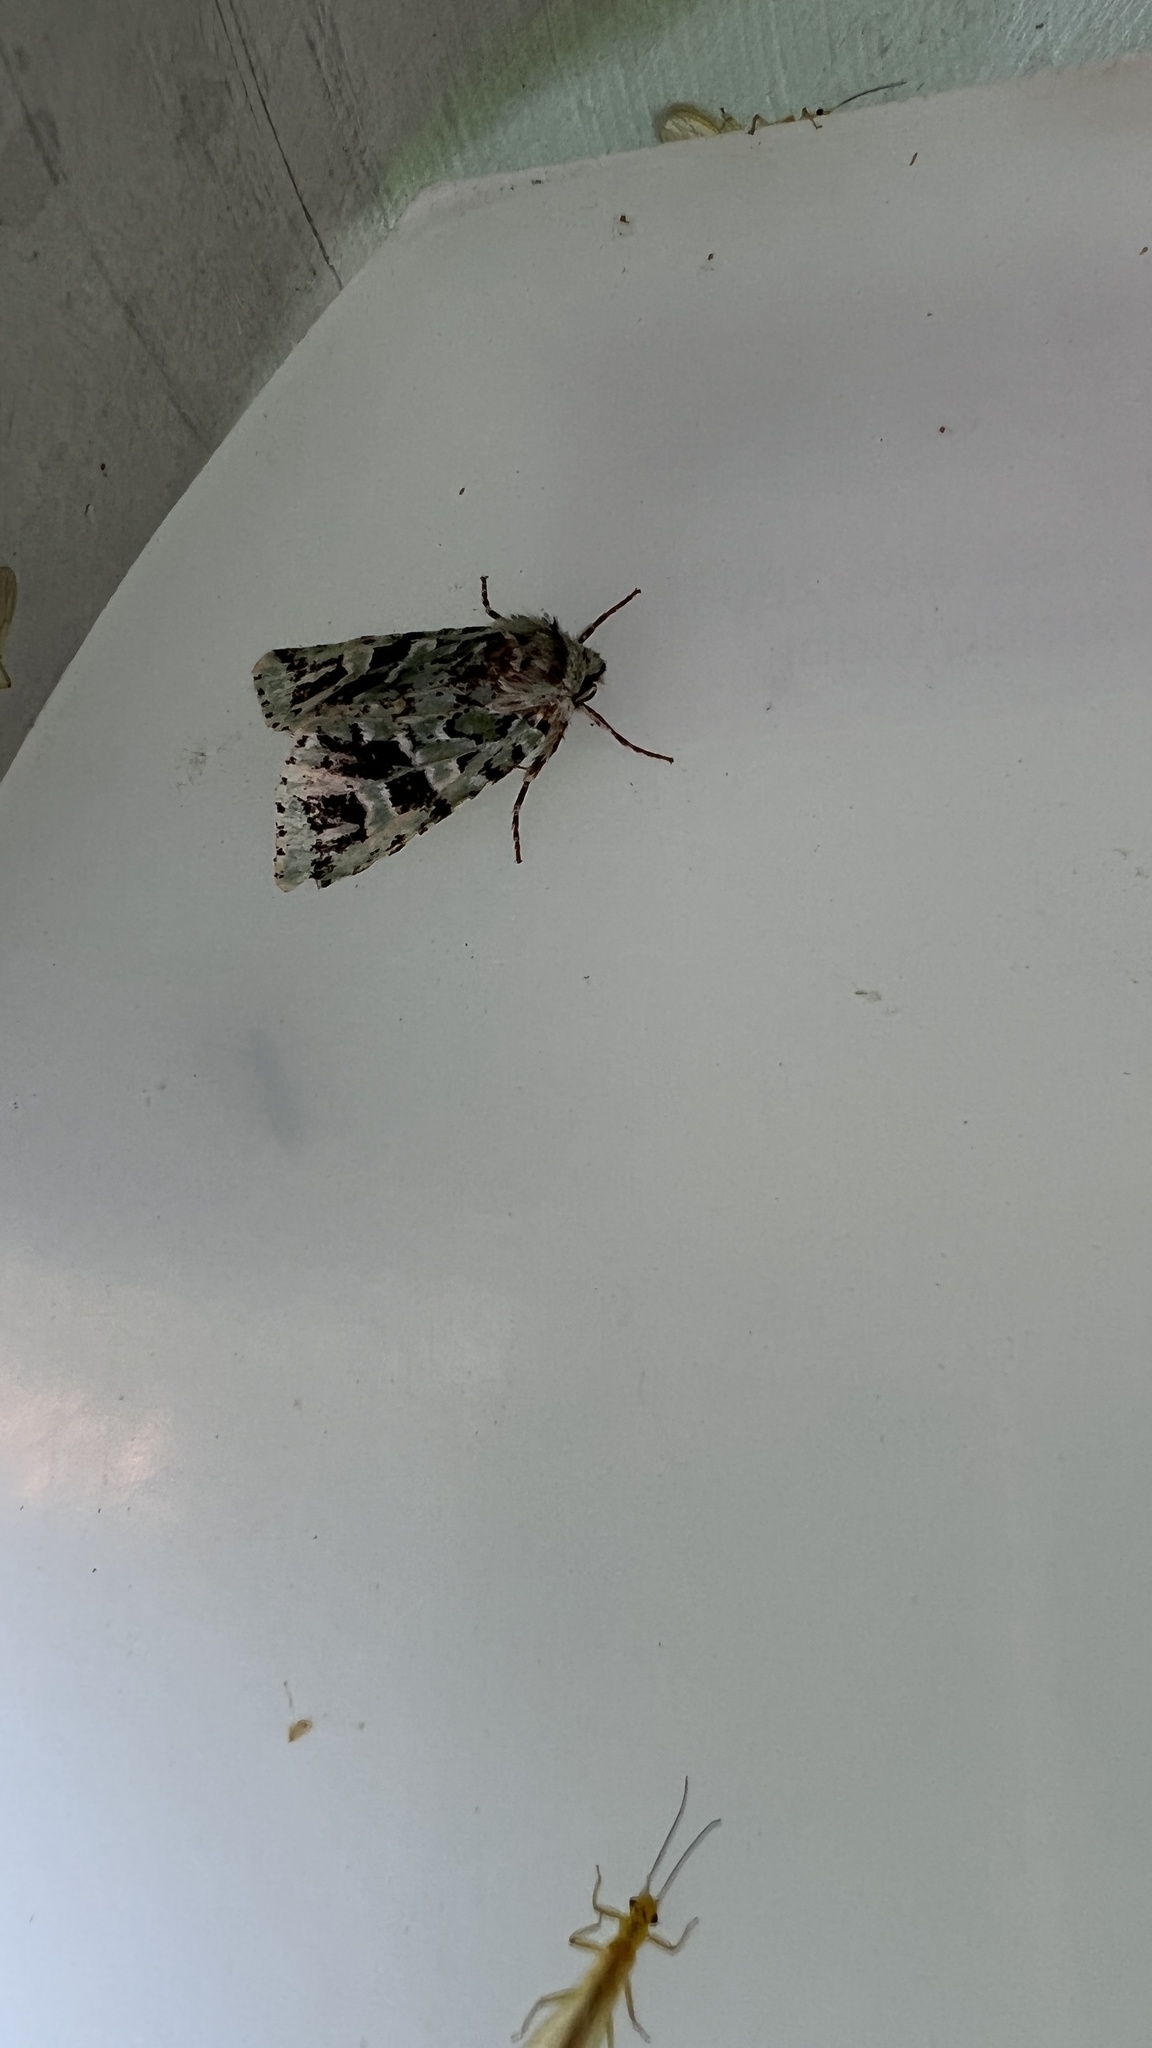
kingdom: Animalia
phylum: Arthropoda
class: Insecta
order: Lepidoptera
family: Noctuidae
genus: Feralia
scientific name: Feralia comstocki
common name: Comstock's sallow
